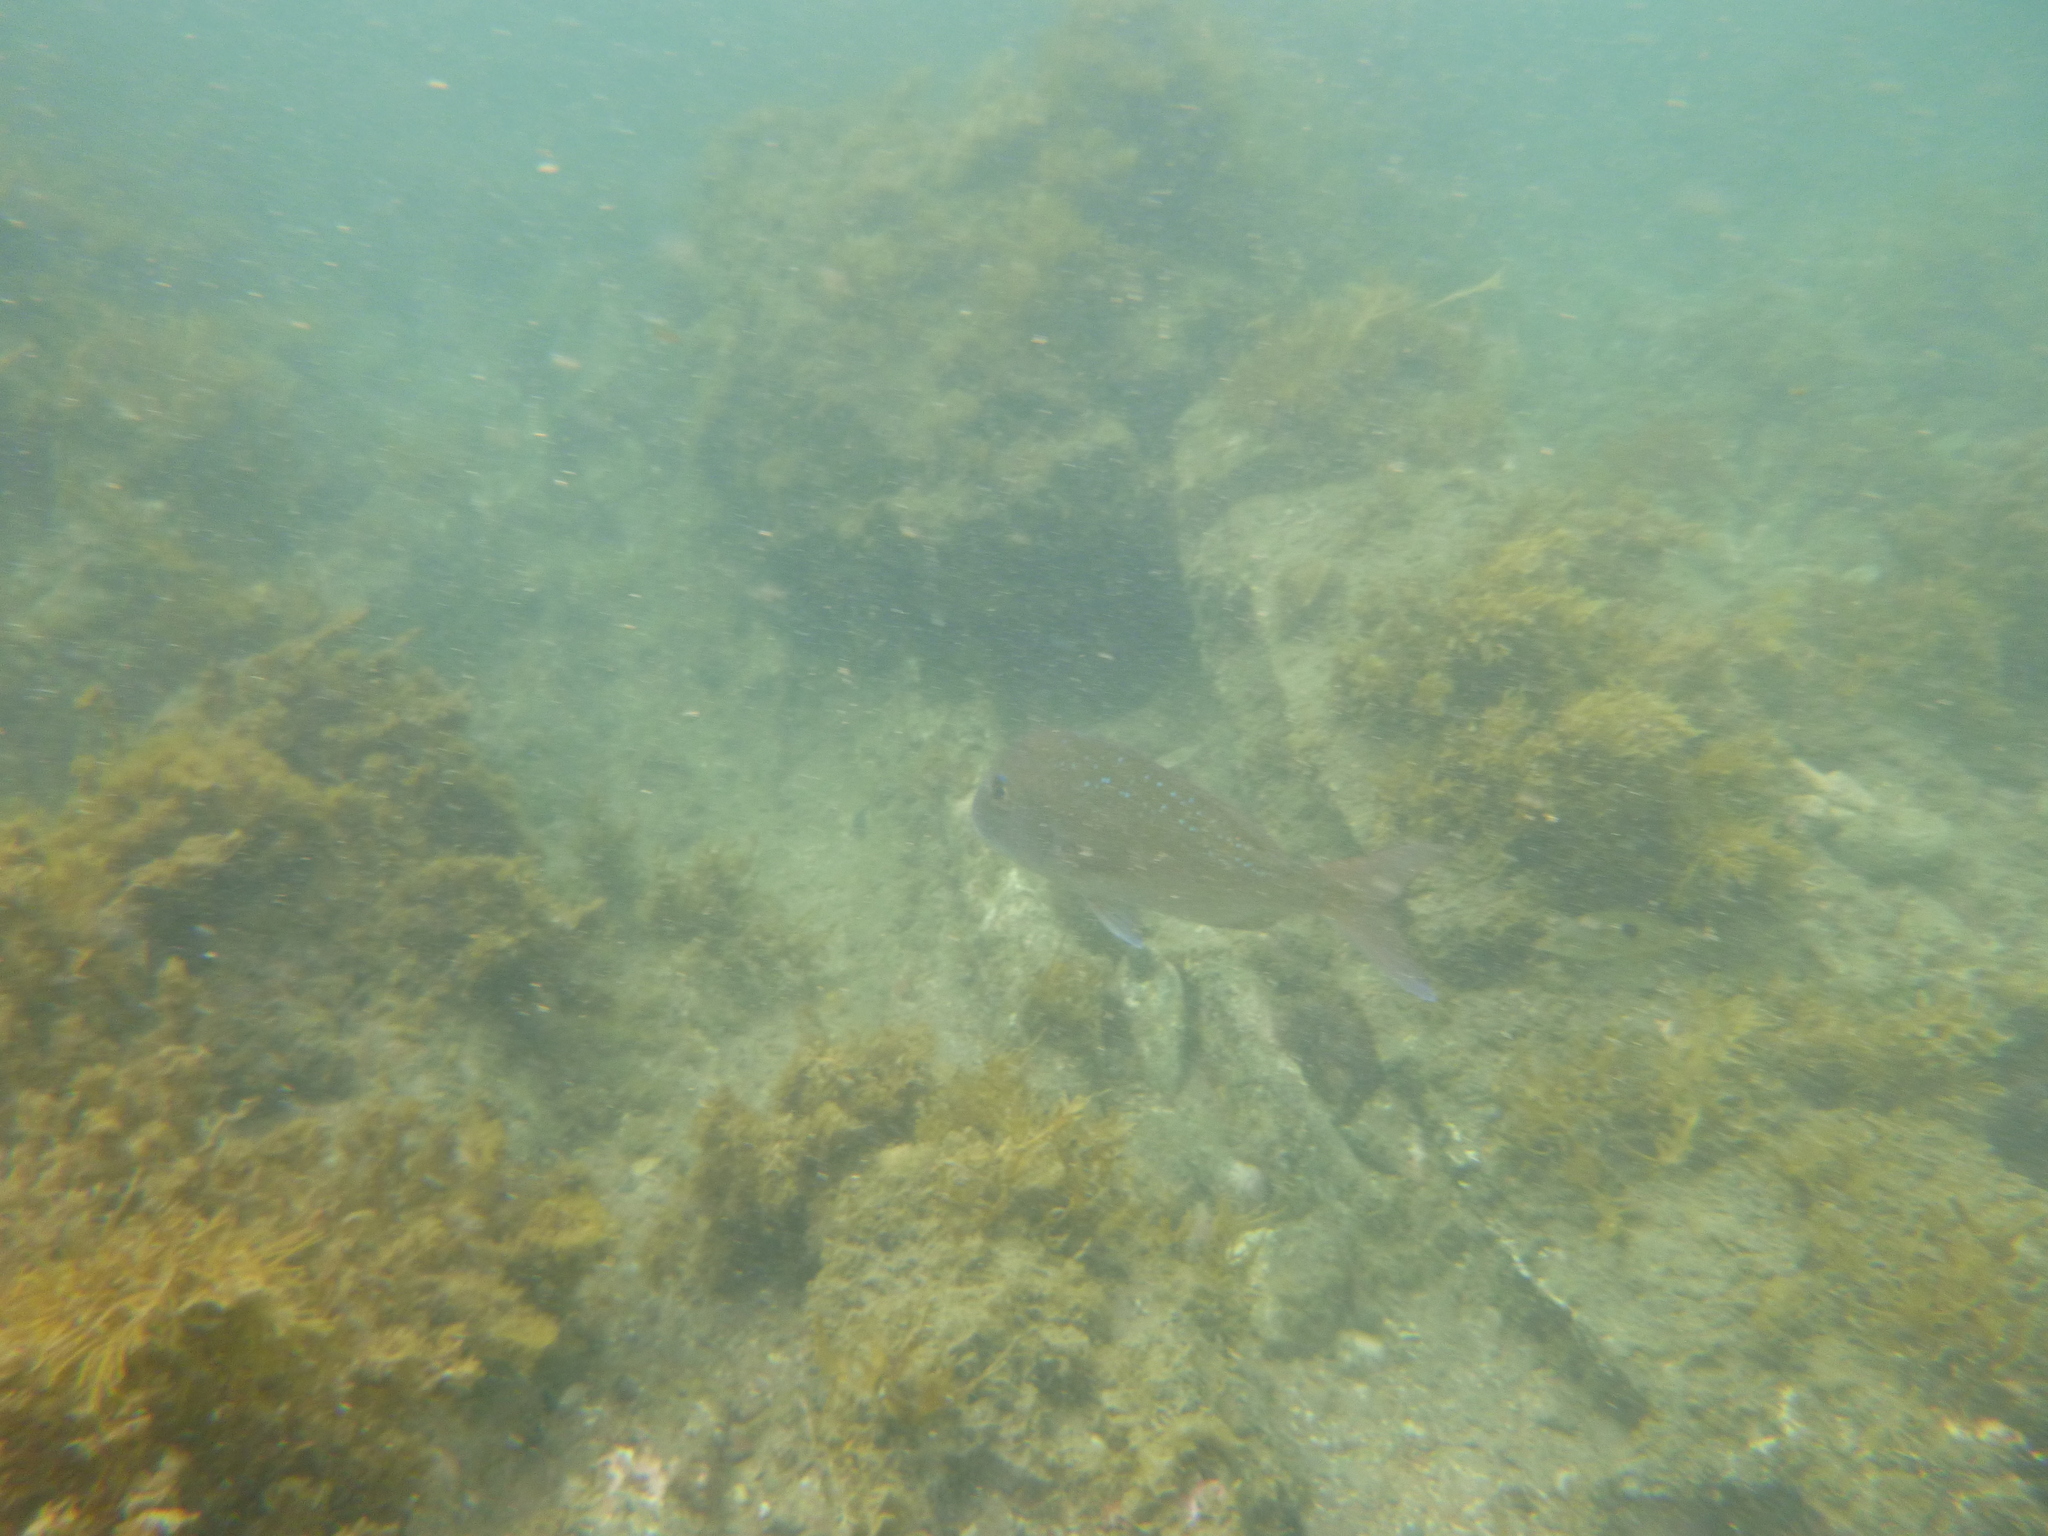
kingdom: Animalia
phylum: Chordata
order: Perciformes
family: Sparidae
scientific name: Sparidae
